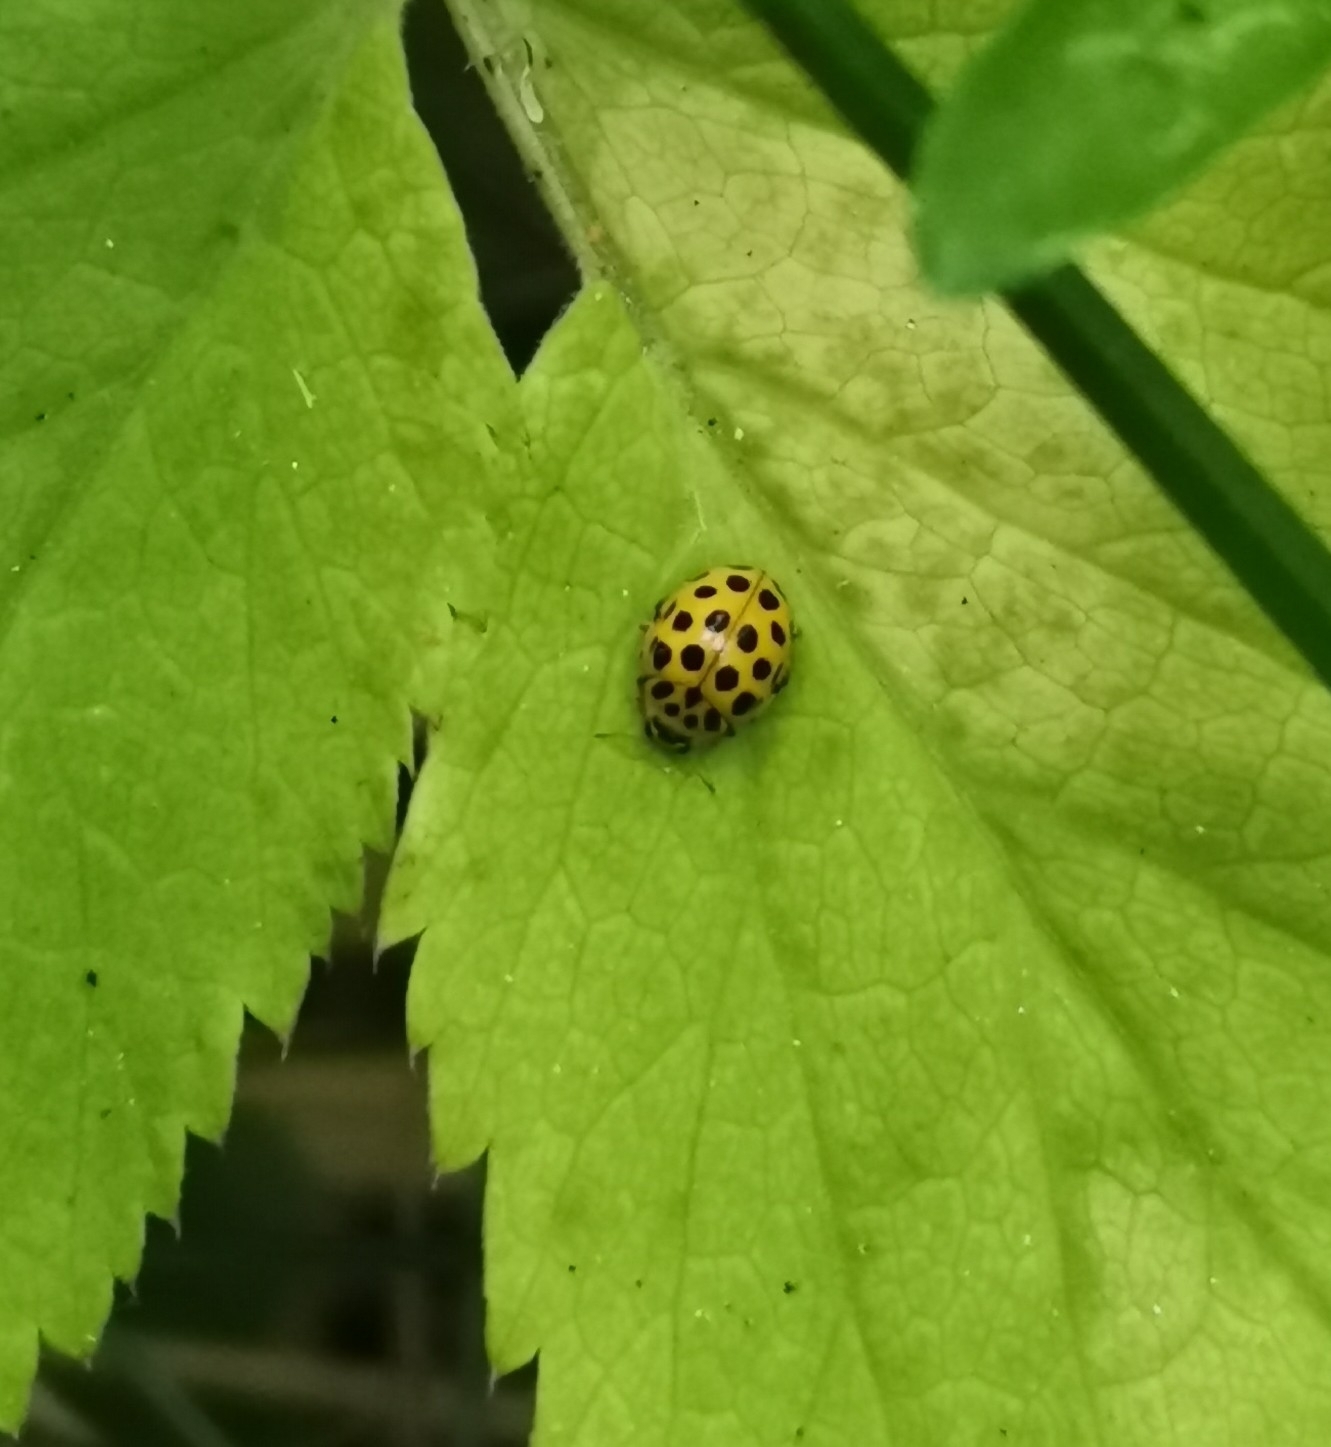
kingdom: Animalia
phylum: Arthropoda
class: Insecta
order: Coleoptera
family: Coccinellidae
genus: Psyllobora
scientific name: Psyllobora vigintiduopunctata
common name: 22-spot ladybird
